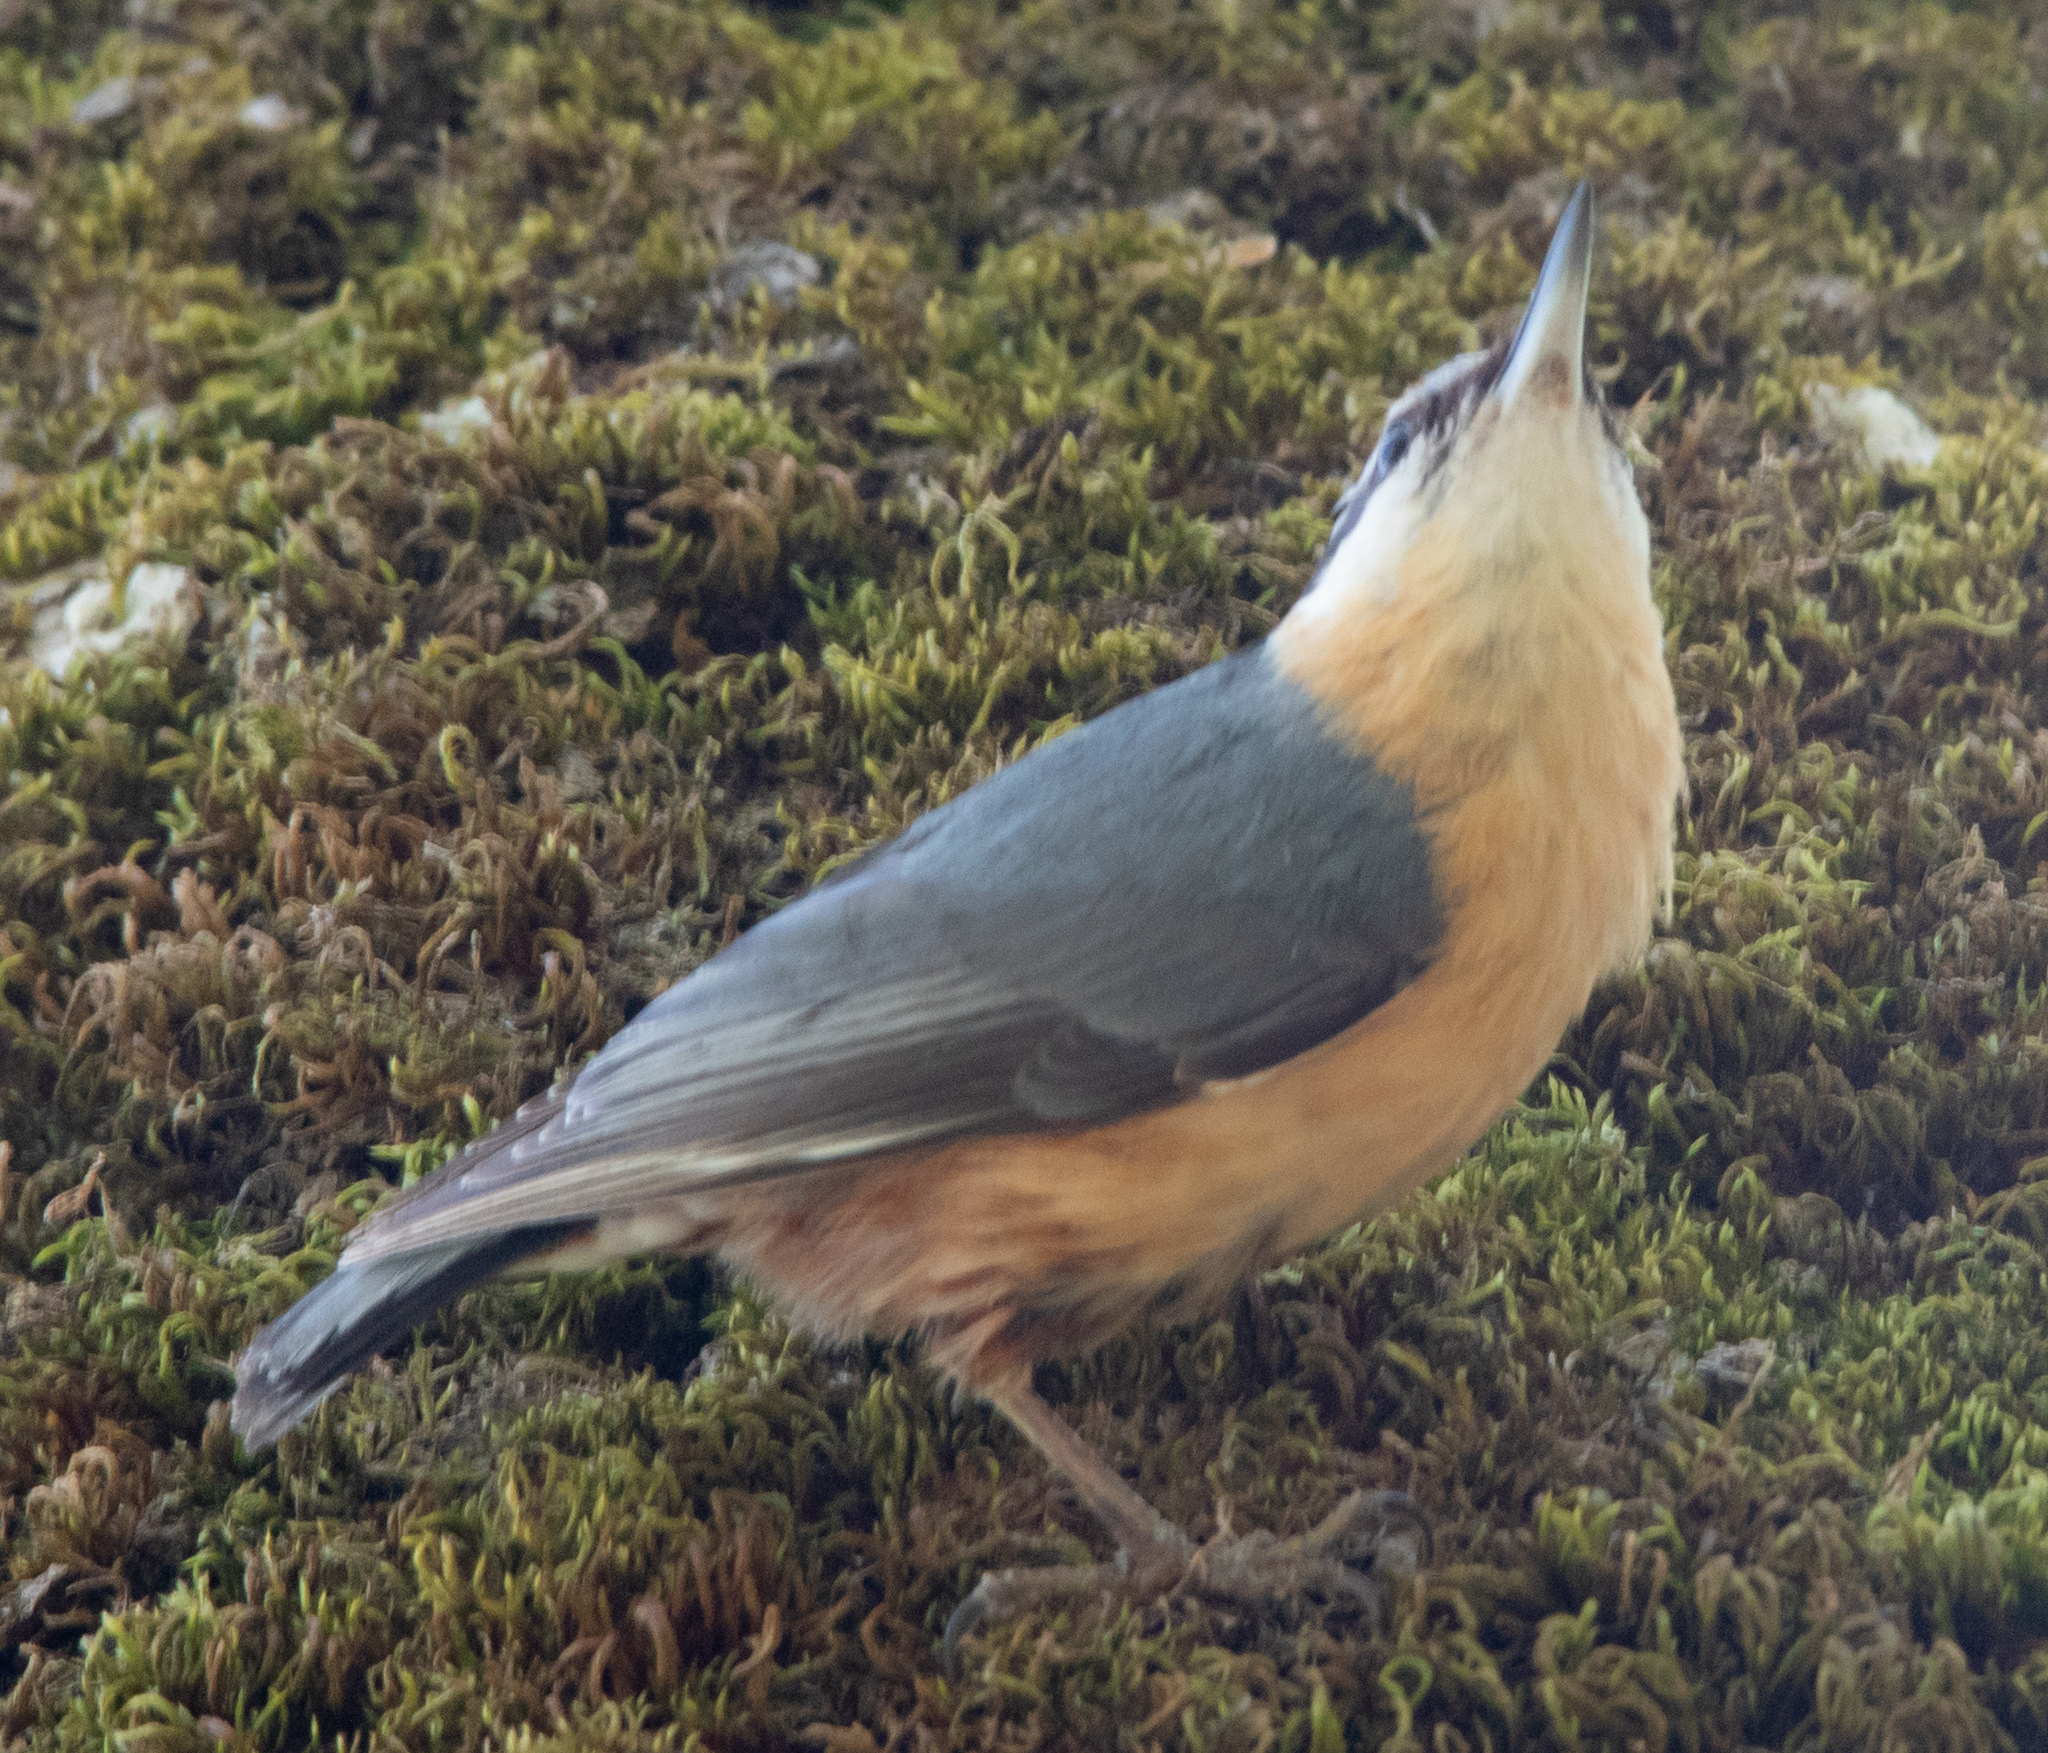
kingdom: Animalia
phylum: Chordata
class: Aves
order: Passeriformes
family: Sittidae
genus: Sitta
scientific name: Sitta europaea
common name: Eurasian nuthatch
